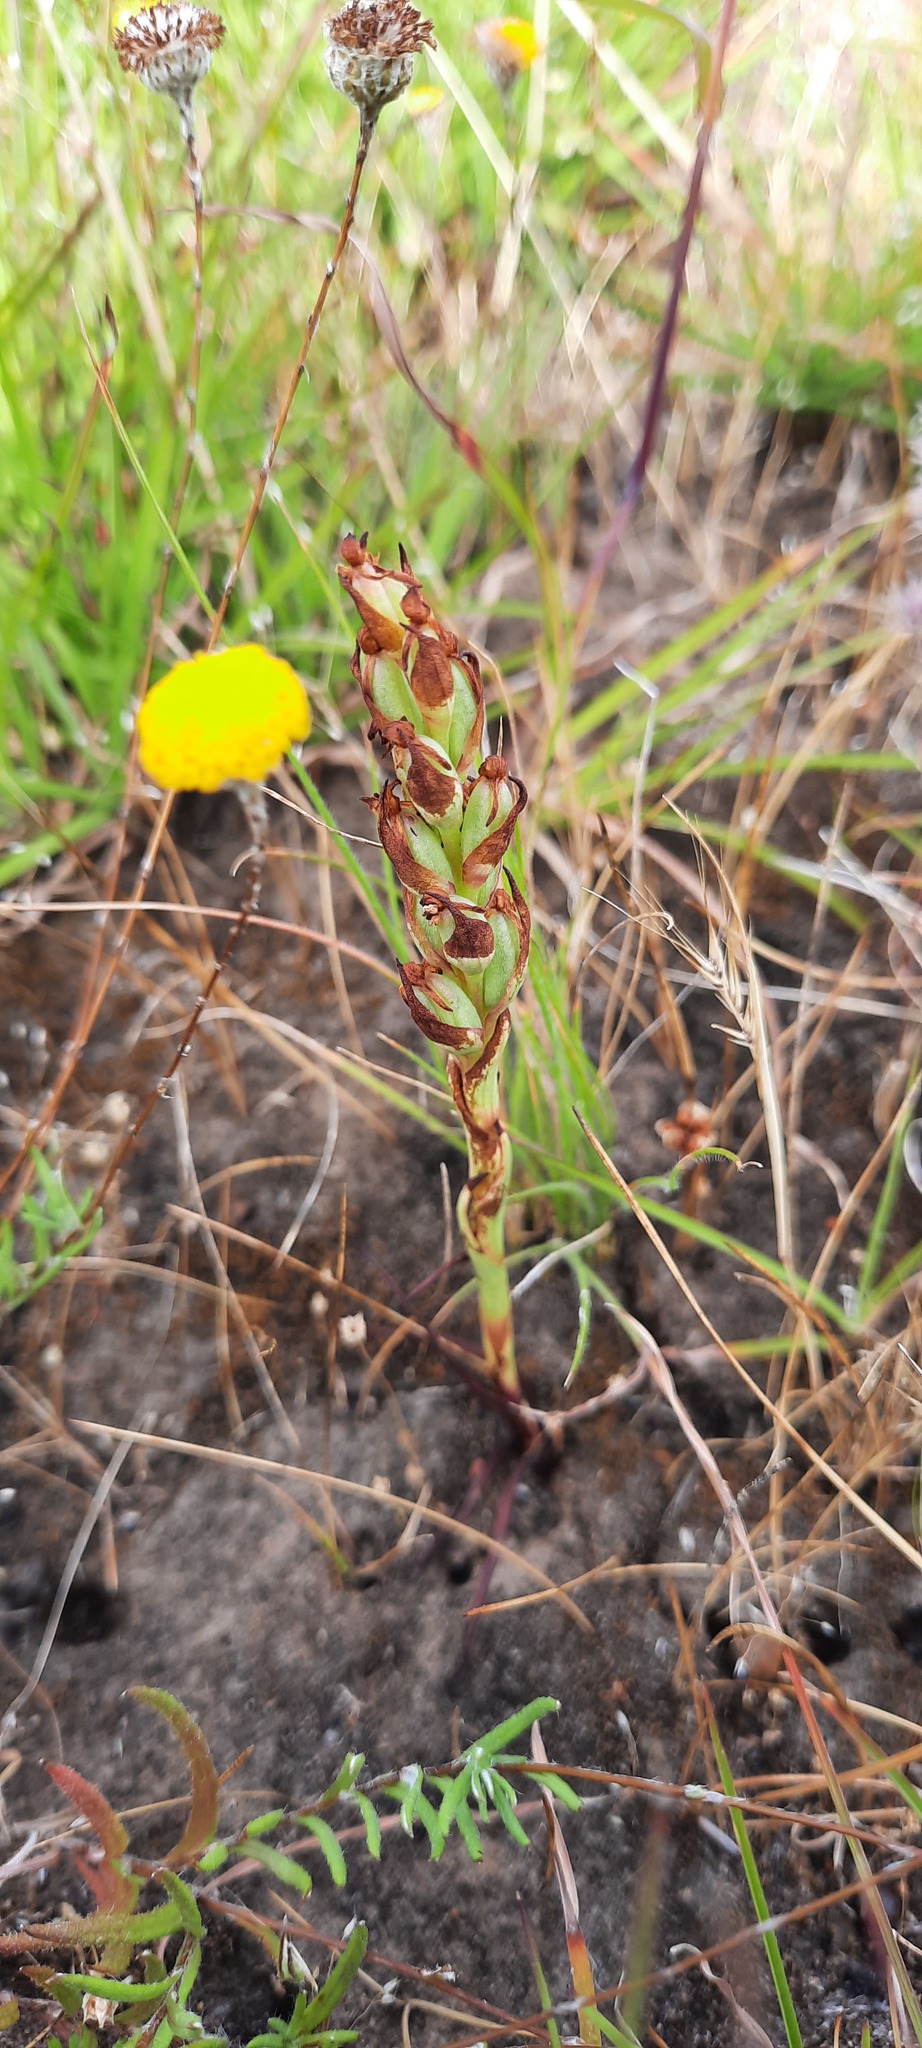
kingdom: Plantae
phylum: Tracheophyta
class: Liliopsida
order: Asparagales
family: Orchidaceae
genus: Disa
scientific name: Disa bracteata
